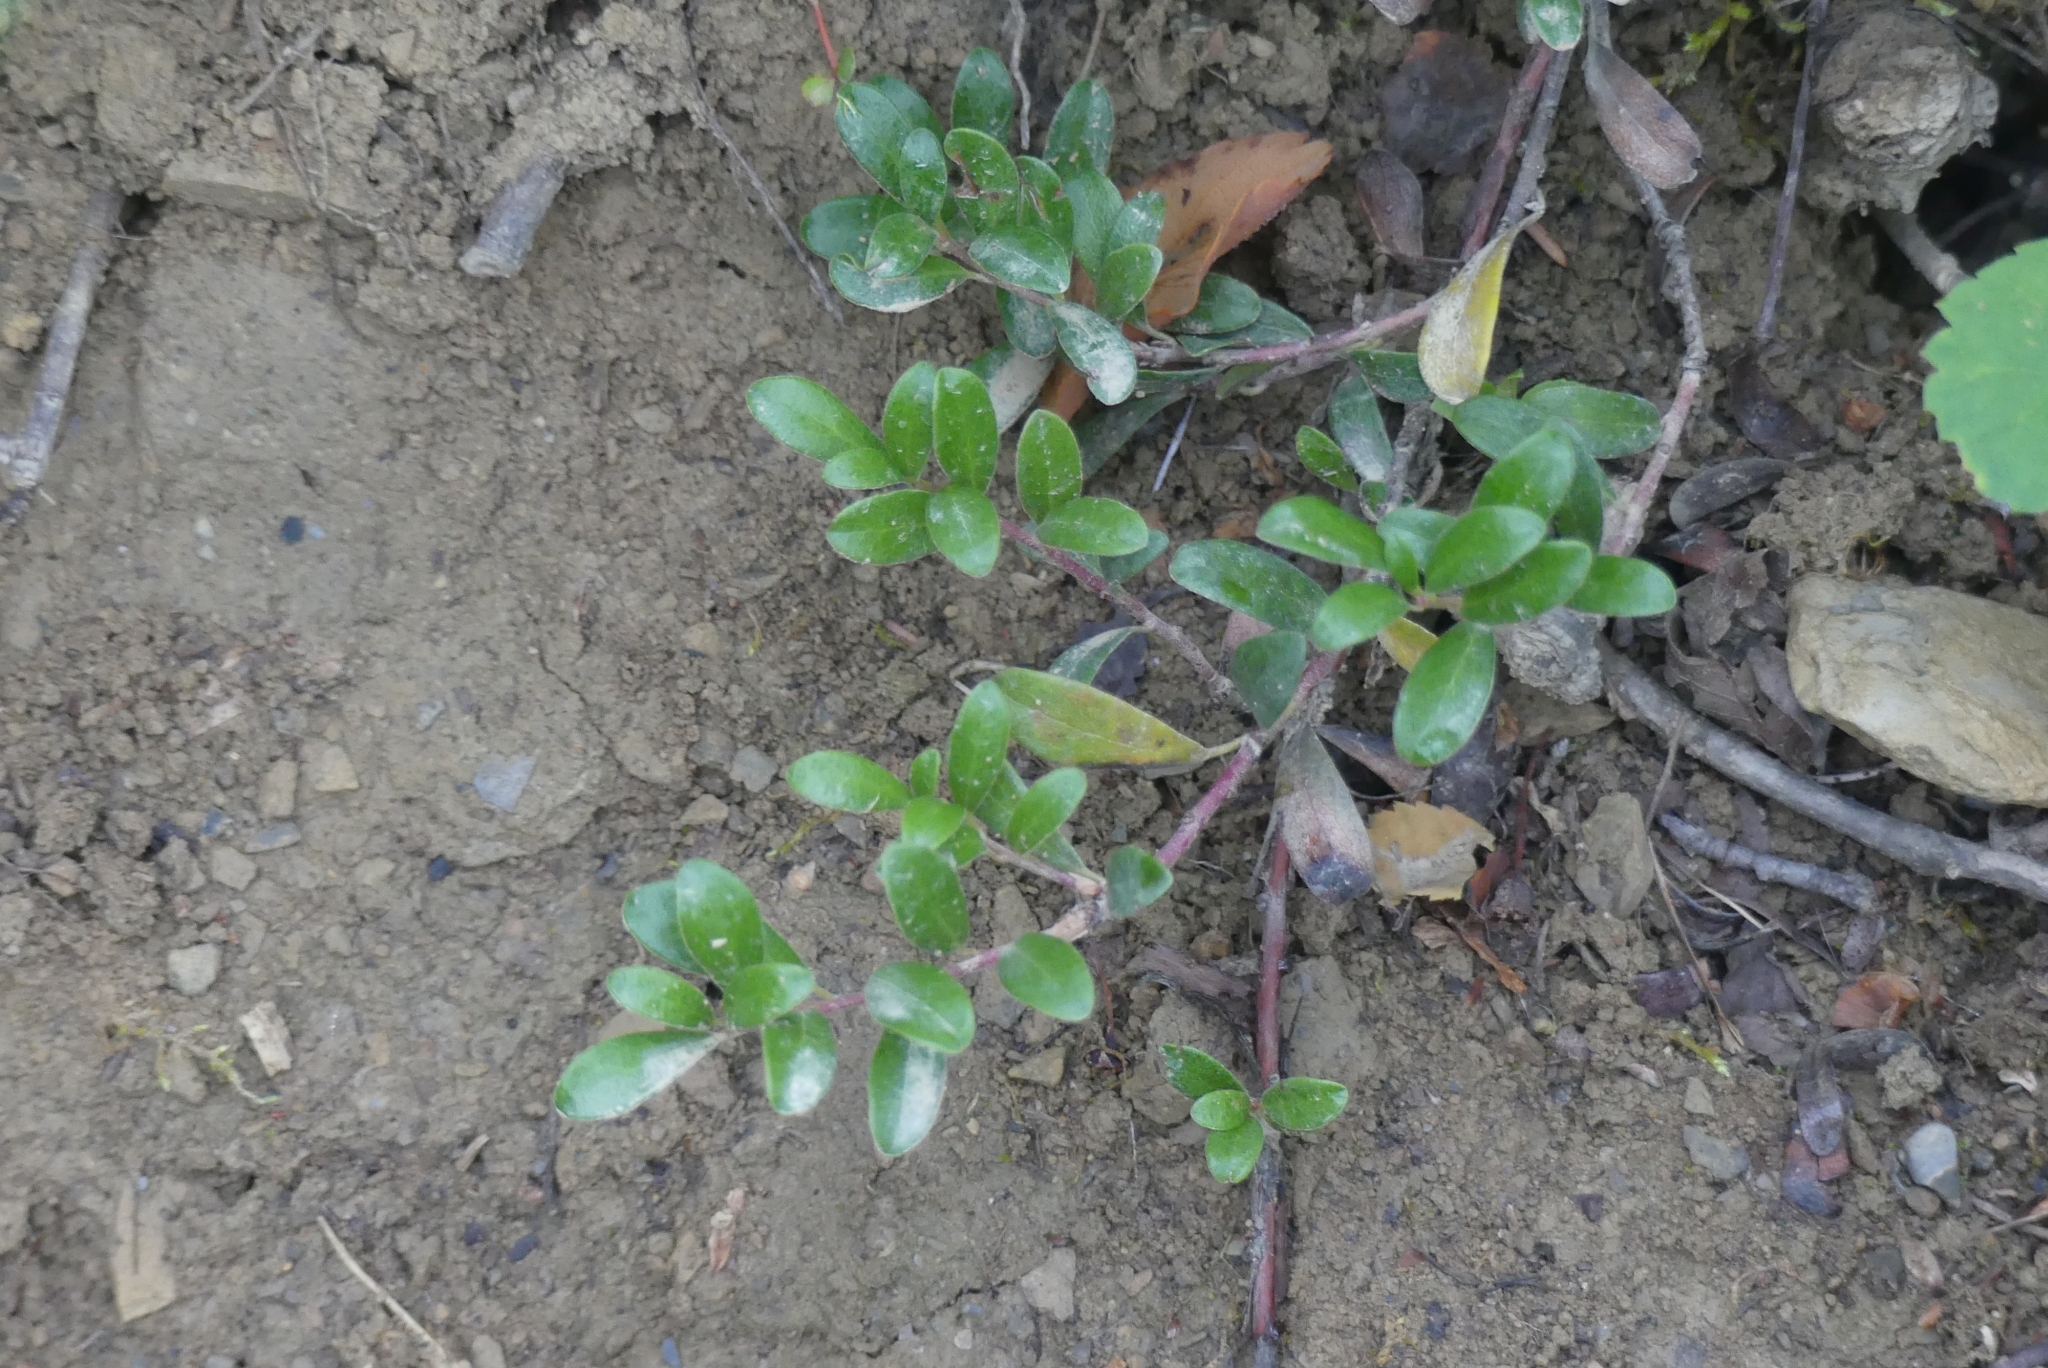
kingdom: Plantae
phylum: Tracheophyta
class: Magnoliopsida
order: Ericales
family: Ericaceae
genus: Arctostaphylos
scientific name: Arctostaphylos uva-ursi
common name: Bearberry
